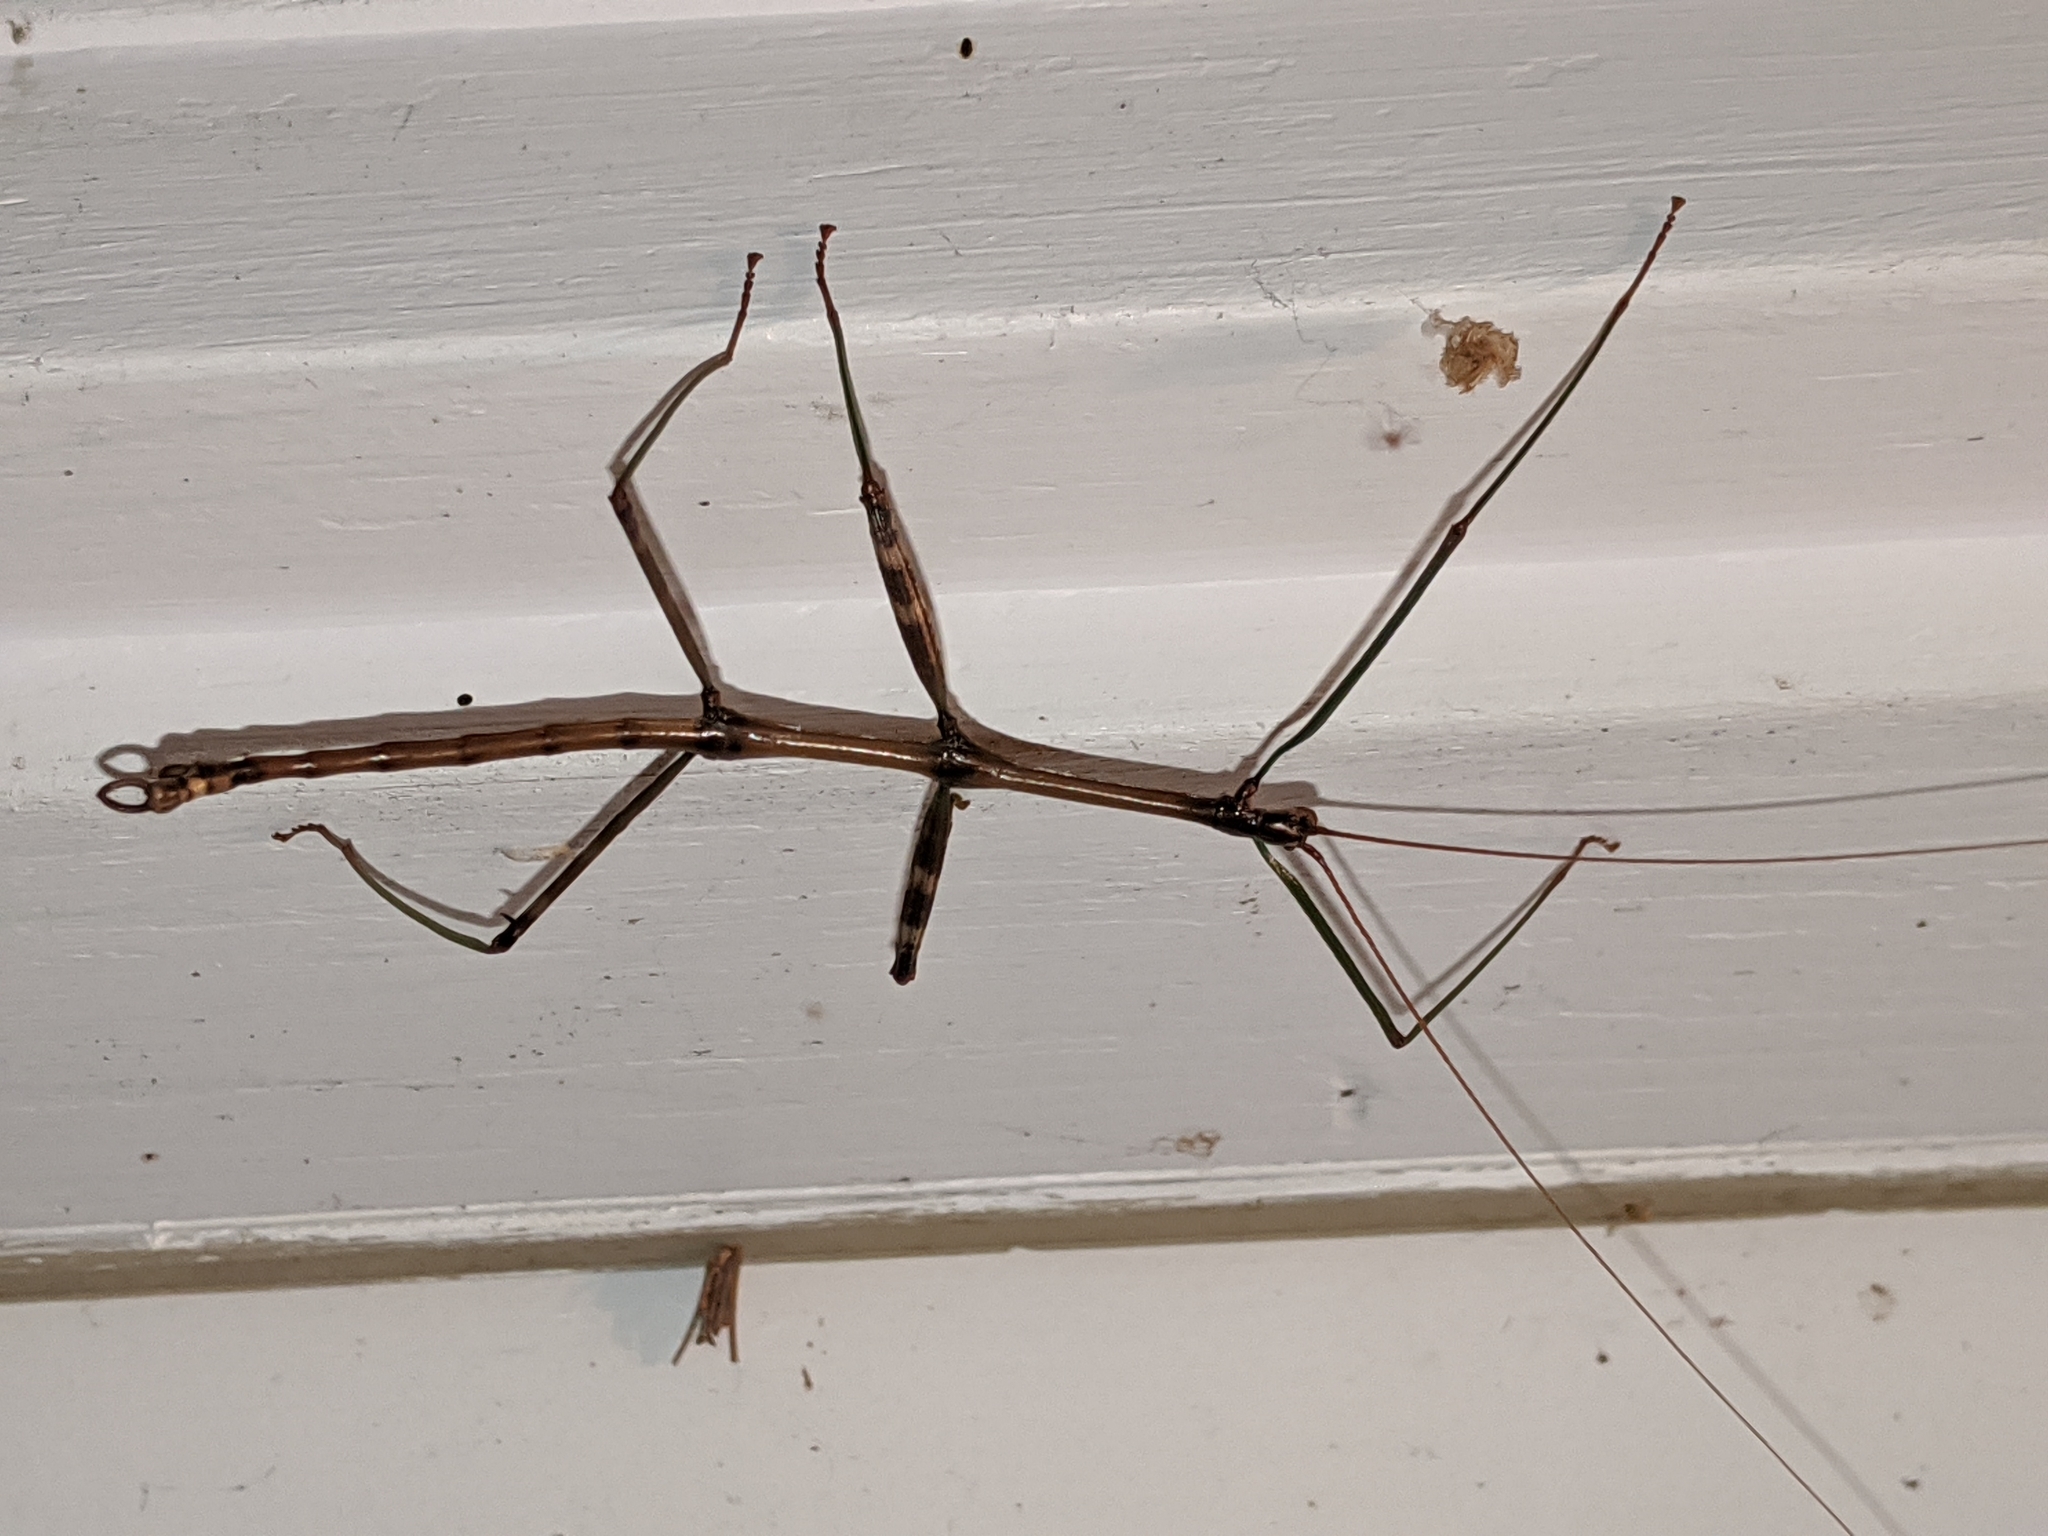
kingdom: Animalia
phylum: Arthropoda
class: Insecta
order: Phasmida
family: Diapheromeridae
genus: Diapheromera
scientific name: Diapheromera femorata
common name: Common american walkingstick
